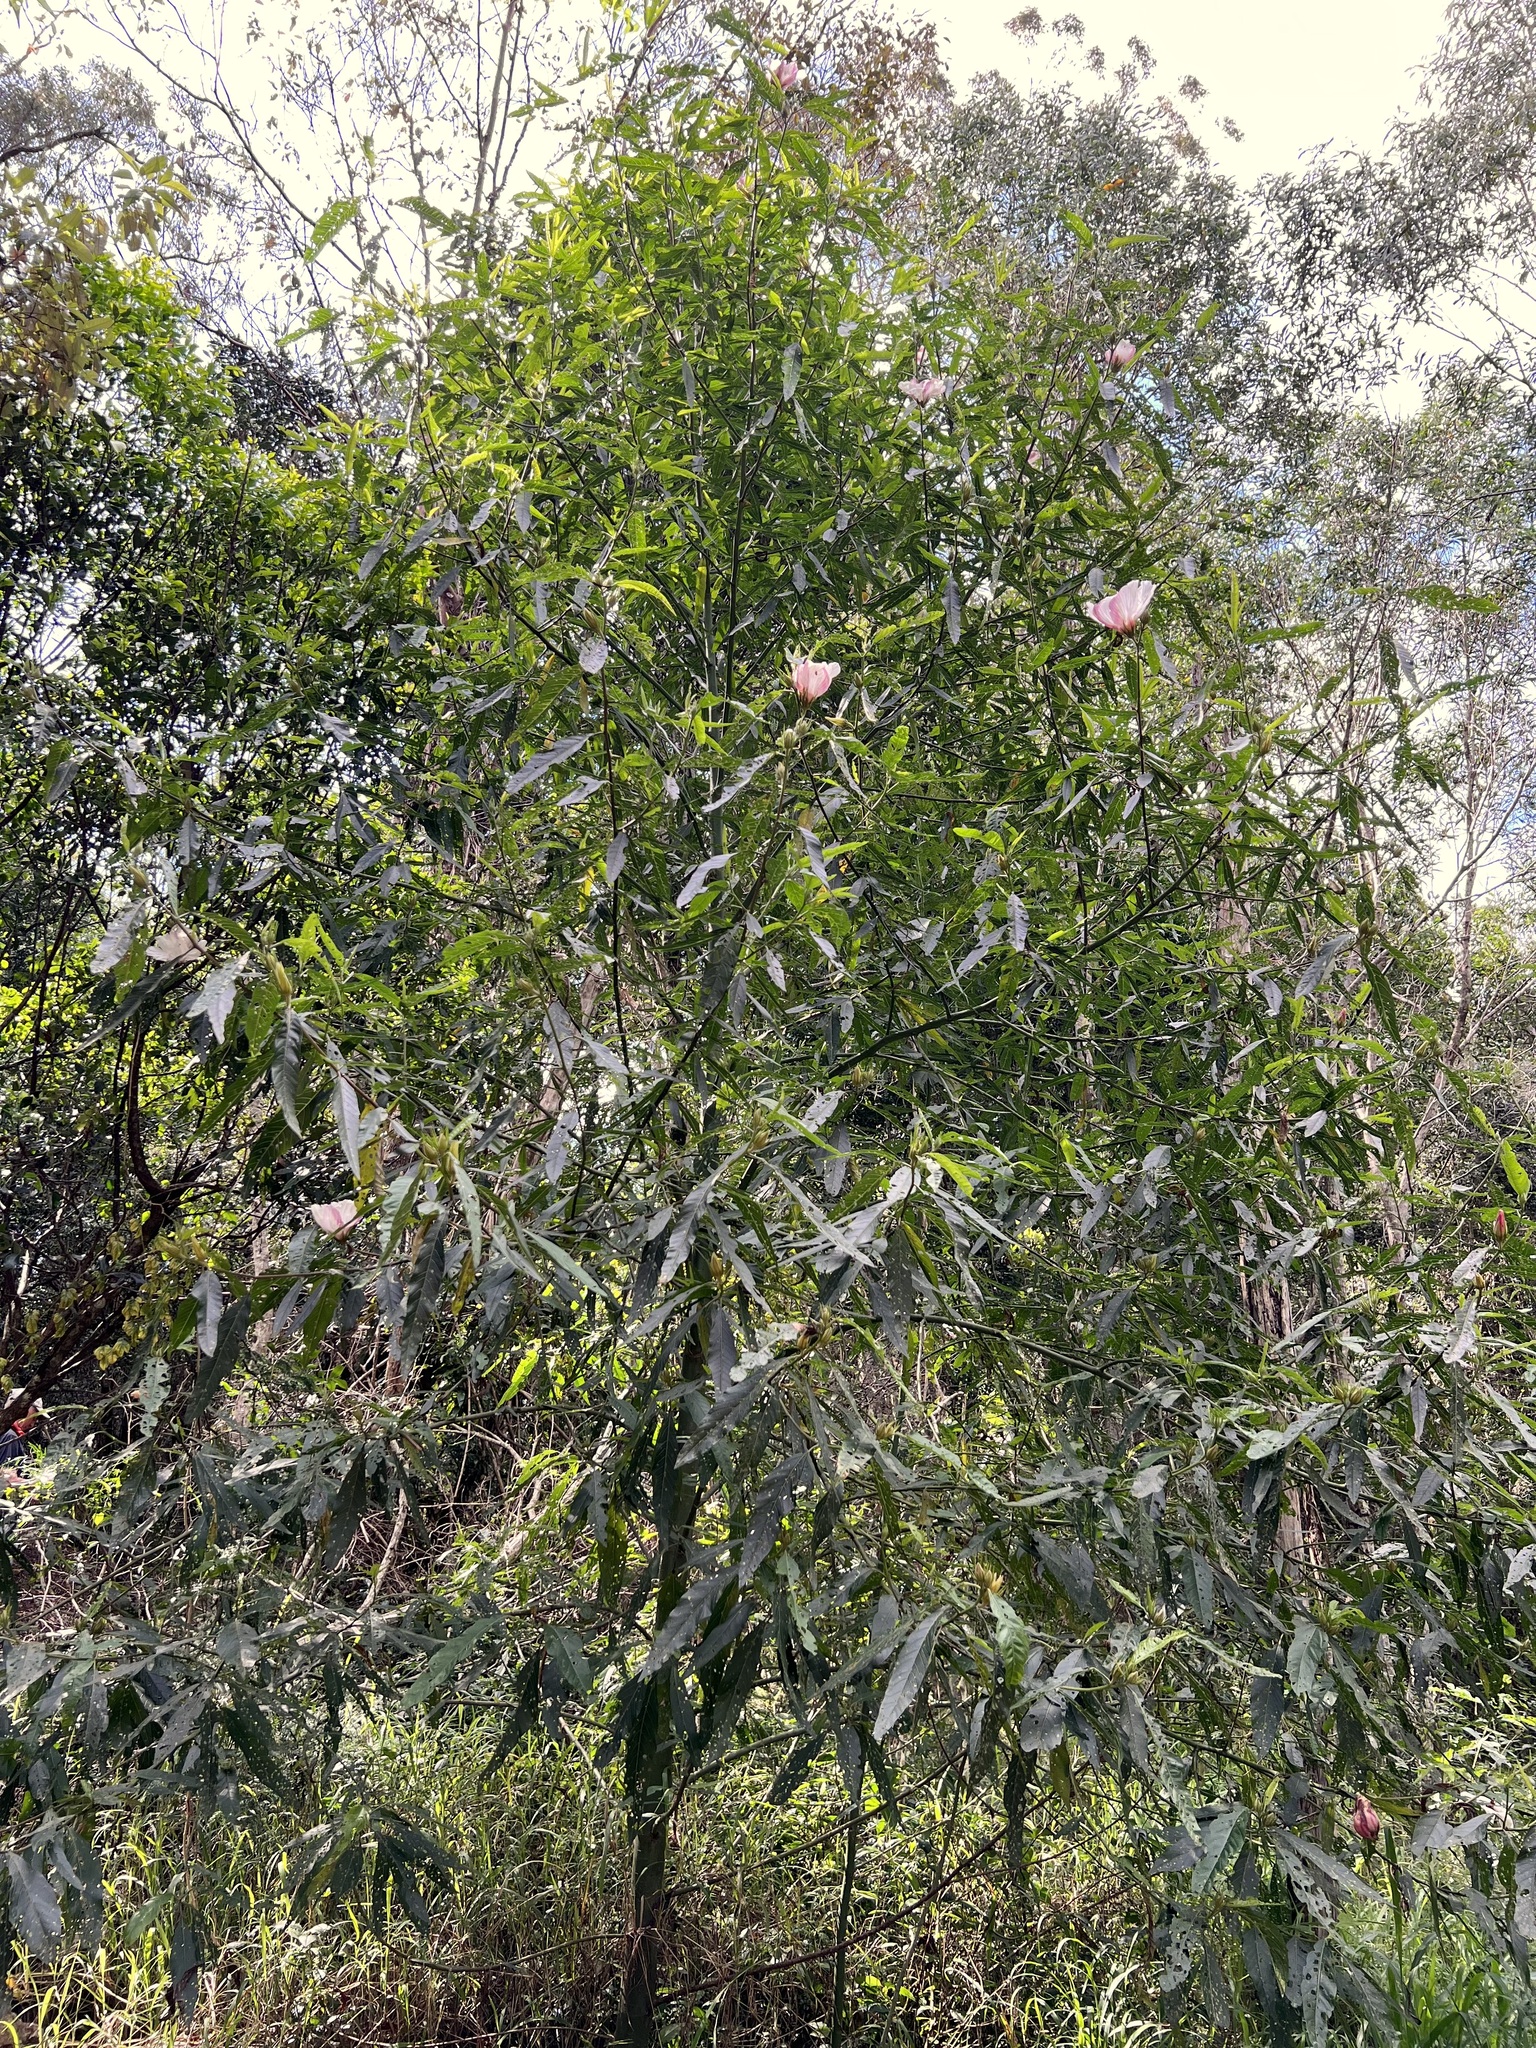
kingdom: Plantae
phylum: Tracheophyta
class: Magnoliopsida
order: Malvales
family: Malvaceae
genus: Hibiscus
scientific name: Hibiscus heterophyllus
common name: Queensland-sorrel
